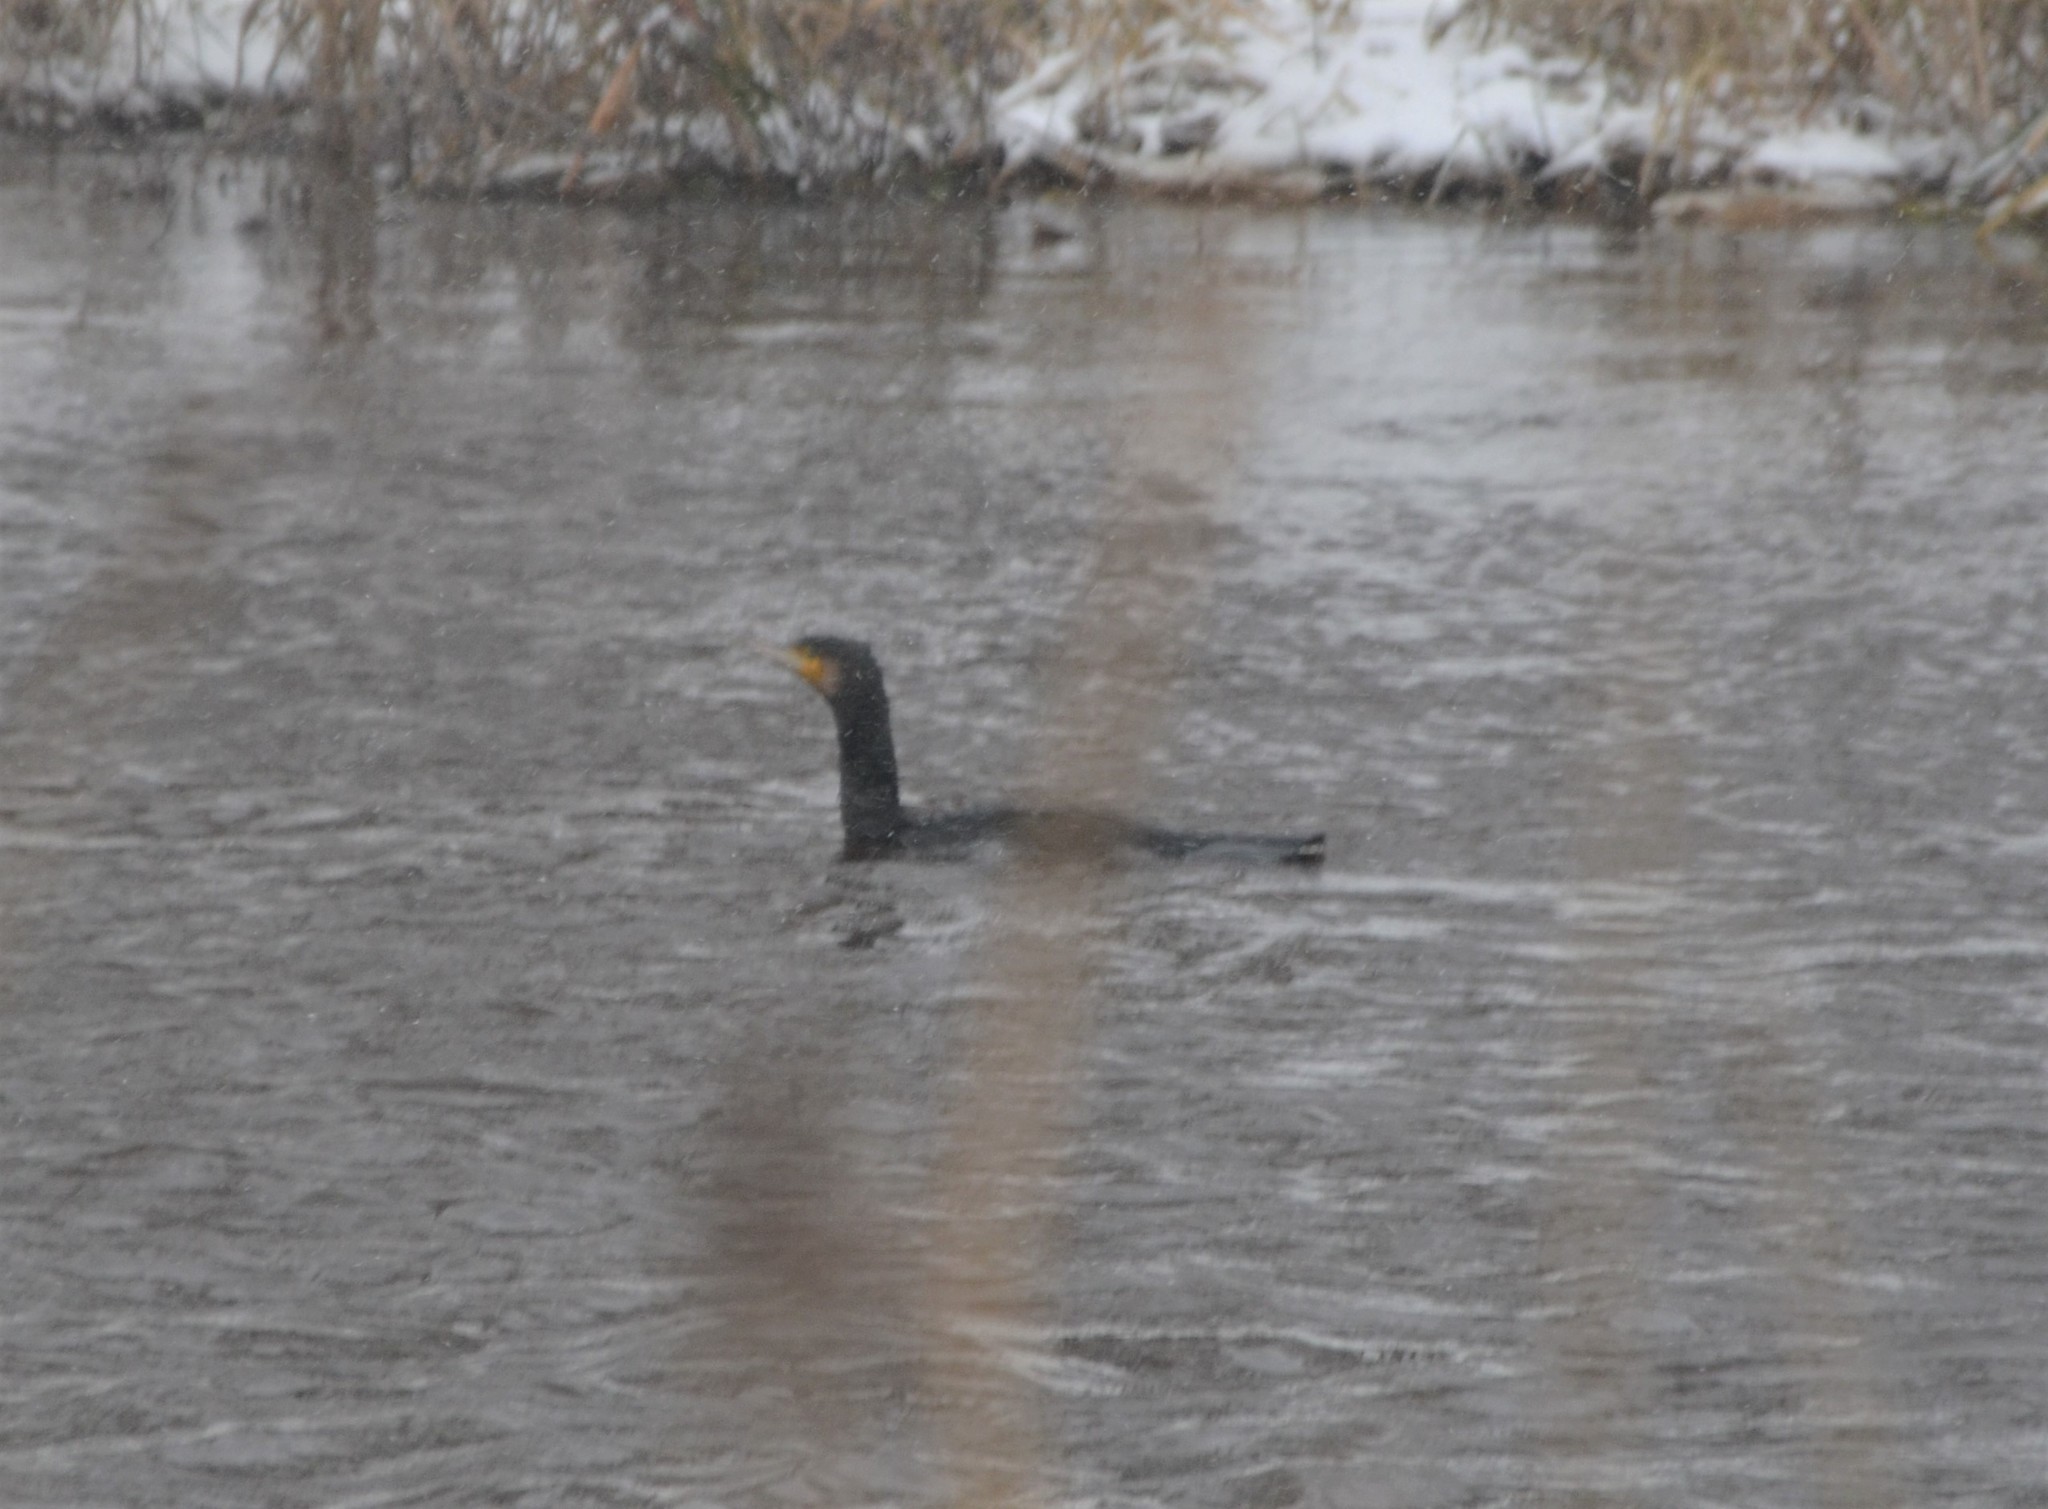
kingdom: Animalia
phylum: Chordata
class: Aves
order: Suliformes
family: Phalacrocoracidae
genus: Phalacrocorax
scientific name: Phalacrocorax carbo
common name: Great cormorant
